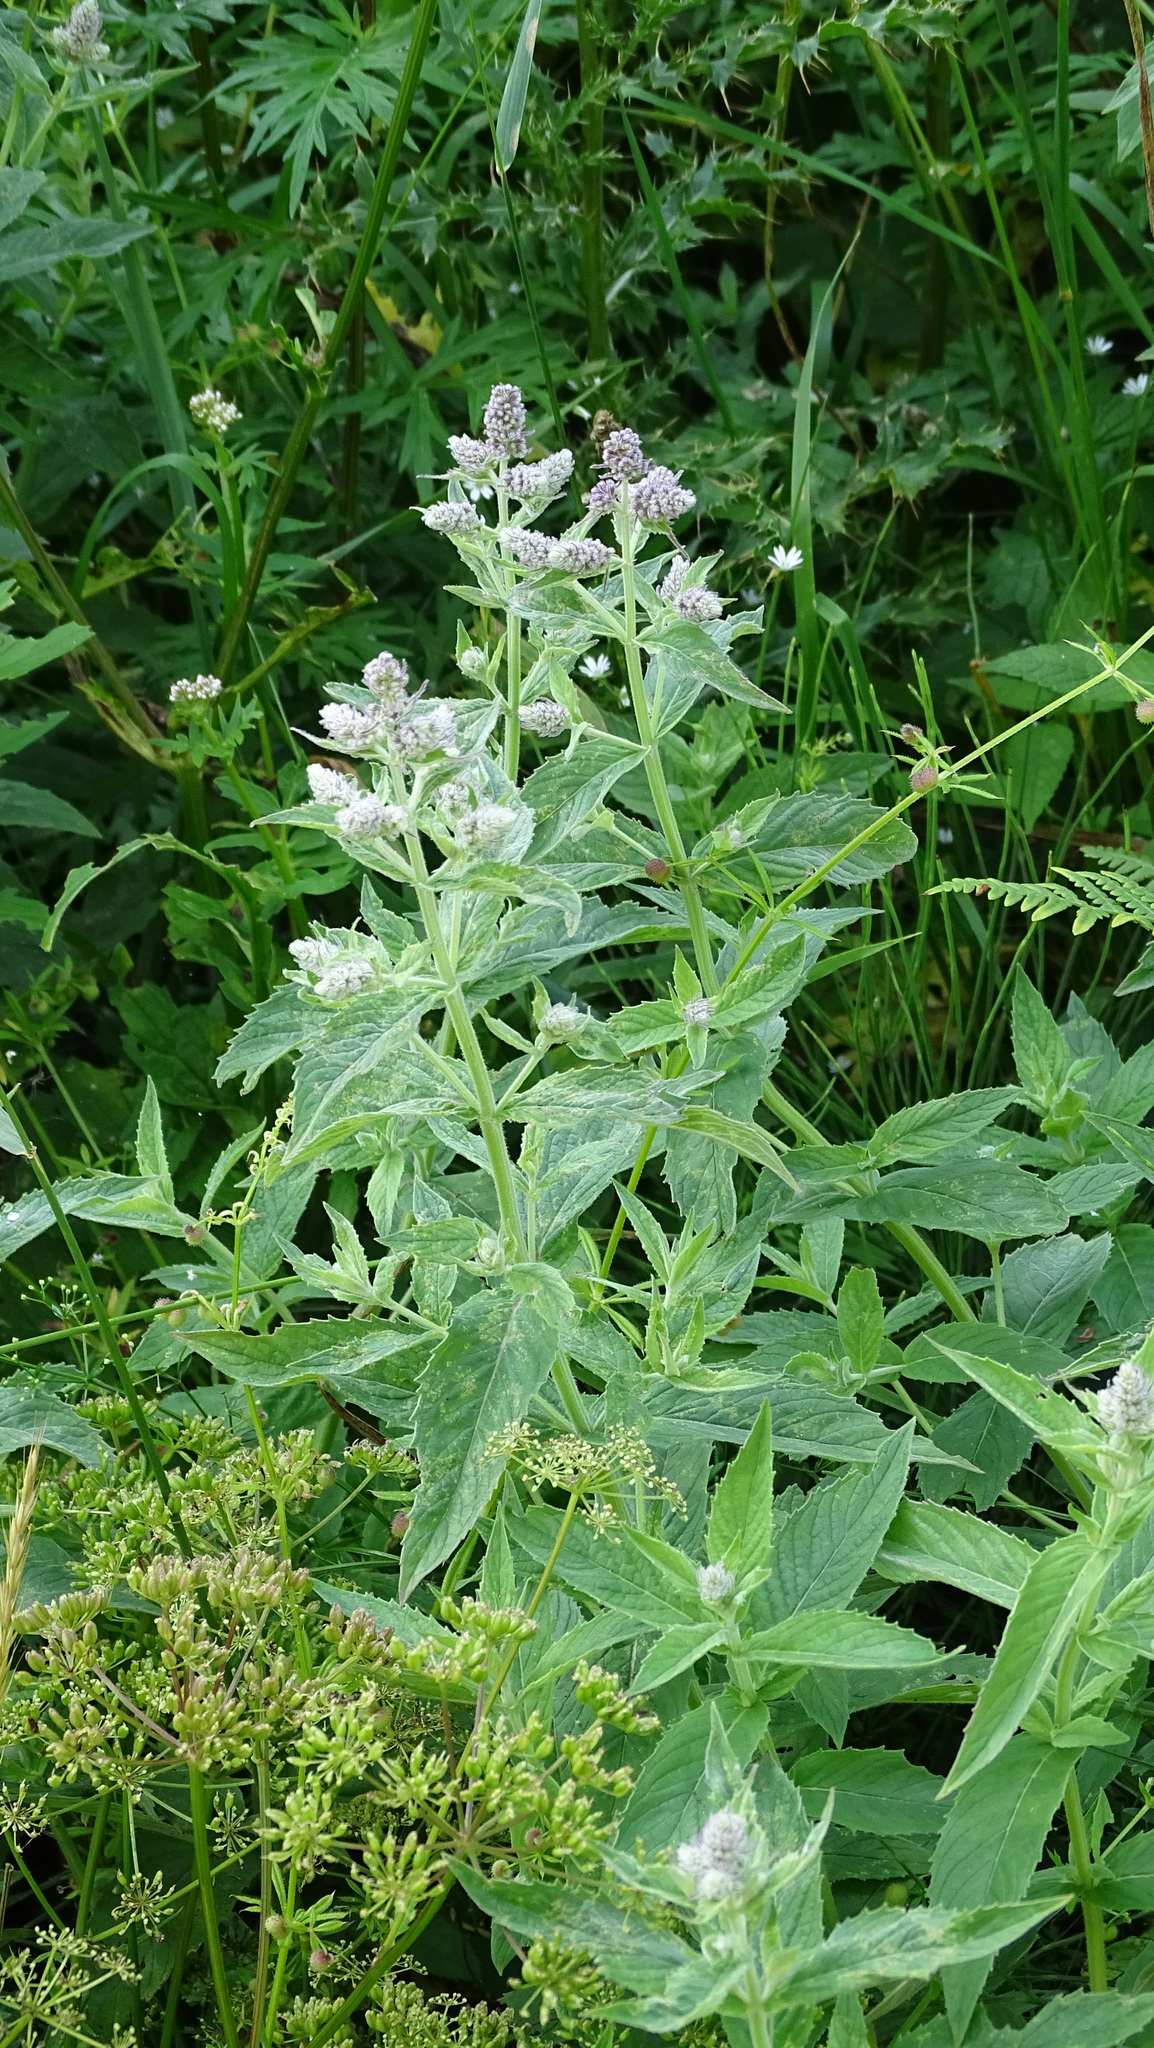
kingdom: Plantae
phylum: Tracheophyta
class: Magnoliopsida
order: Lamiales
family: Lamiaceae
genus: Mentha
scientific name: Mentha longifolia
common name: Horse mint
